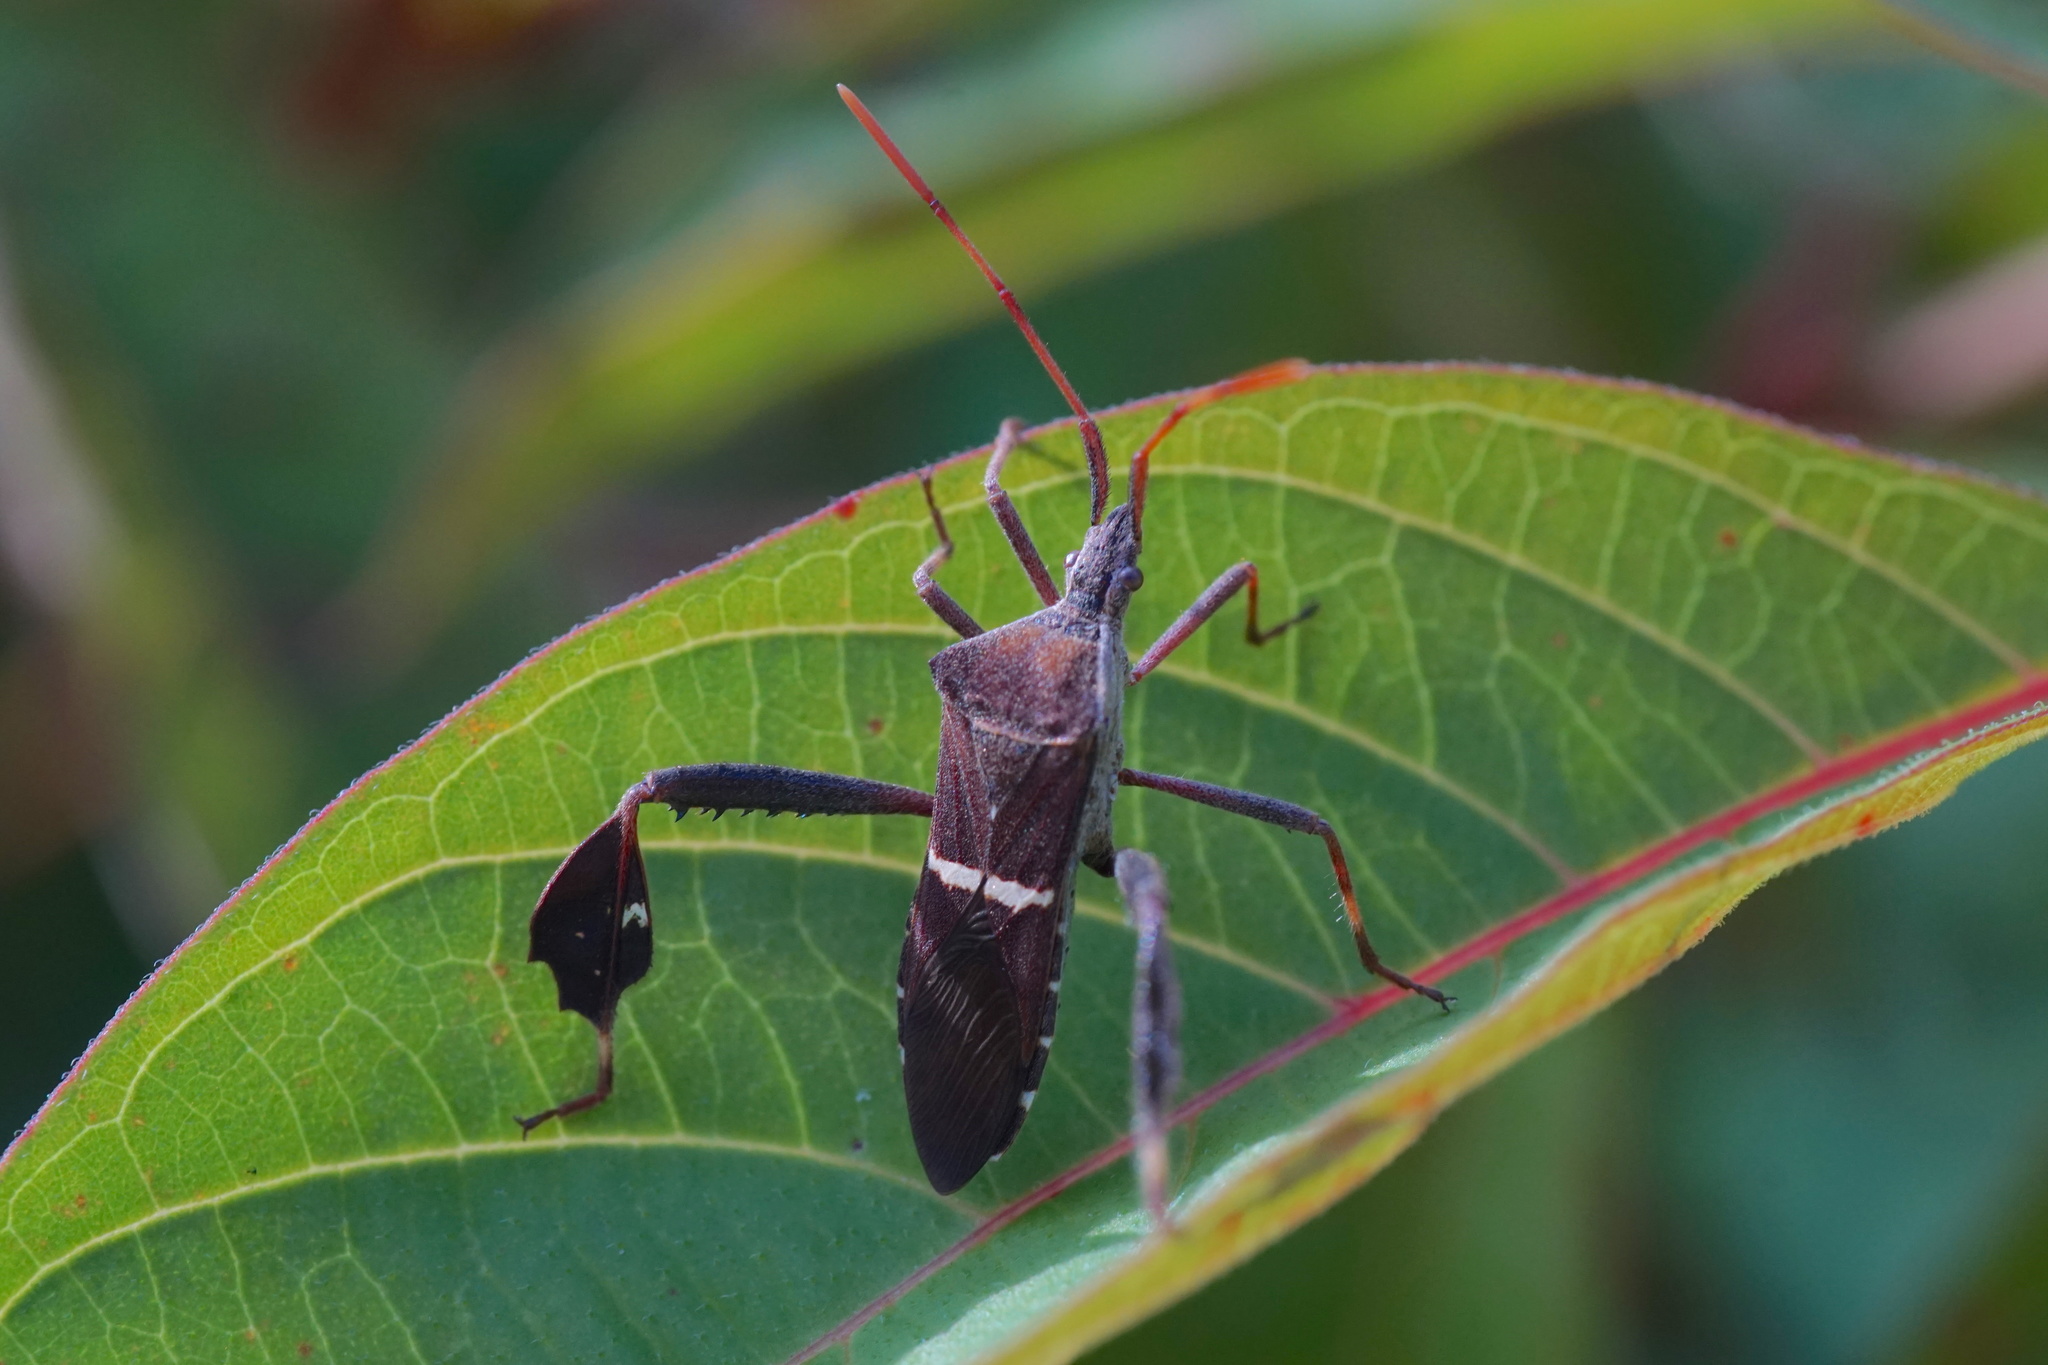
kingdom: Animalia
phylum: Arthropoda
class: Insecta
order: Hemiptera
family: Coreidae
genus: Leptoglossus
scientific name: Leptoglossus phyllopus
